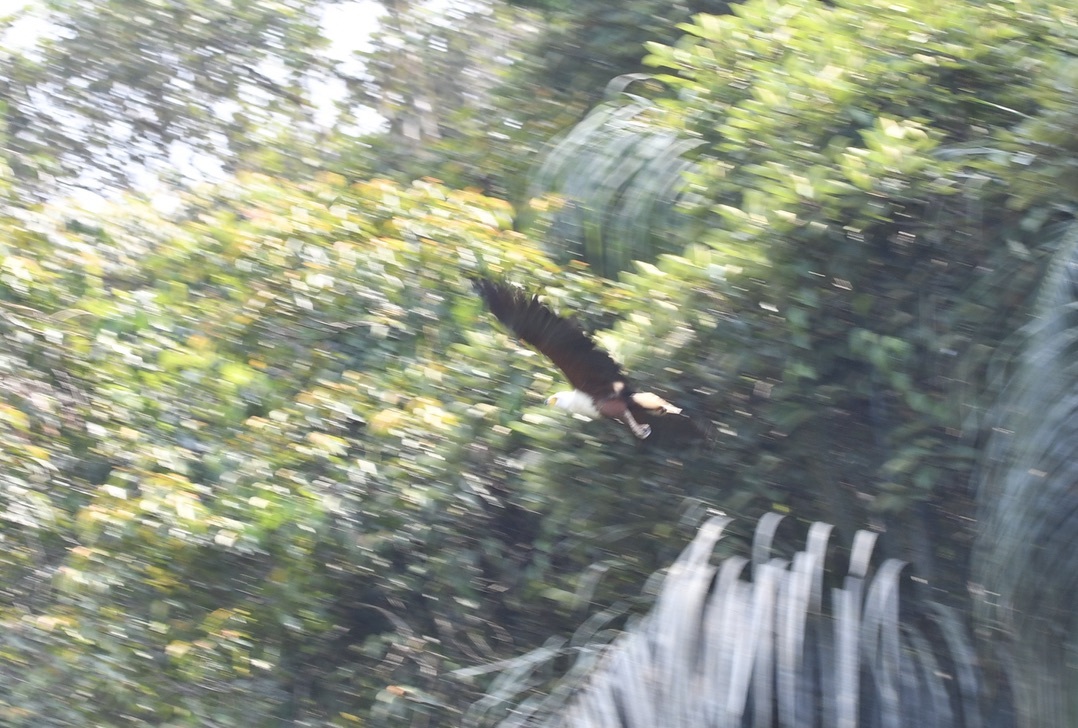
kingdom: Animalia
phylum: Chordata
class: Aves
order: Accipitriformes
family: Accipitridae
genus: Haliaeetus
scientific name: Haliaeetus vocifer
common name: African fish eagle
